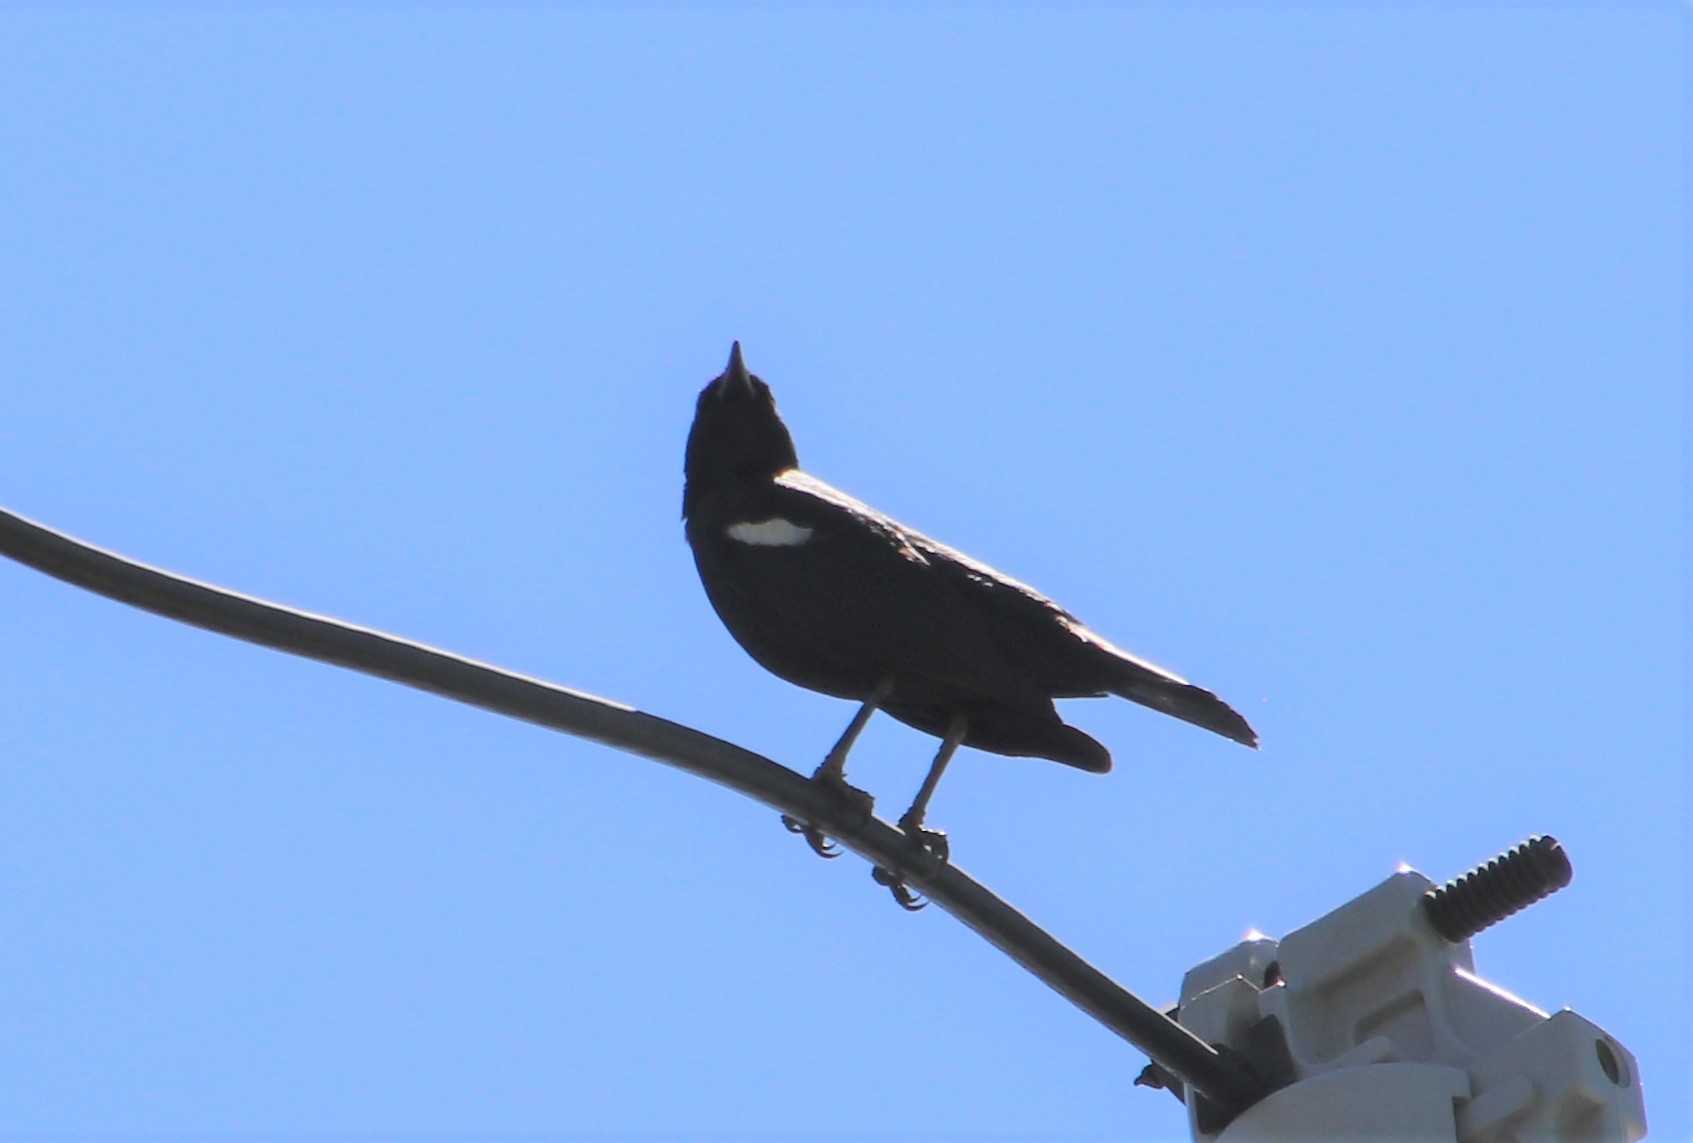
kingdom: Animalia
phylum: Chordata
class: Aves
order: Passeriformes
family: Icteridae
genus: Agelaius
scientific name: Agelaius tricolor
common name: Tricolored blackbird
